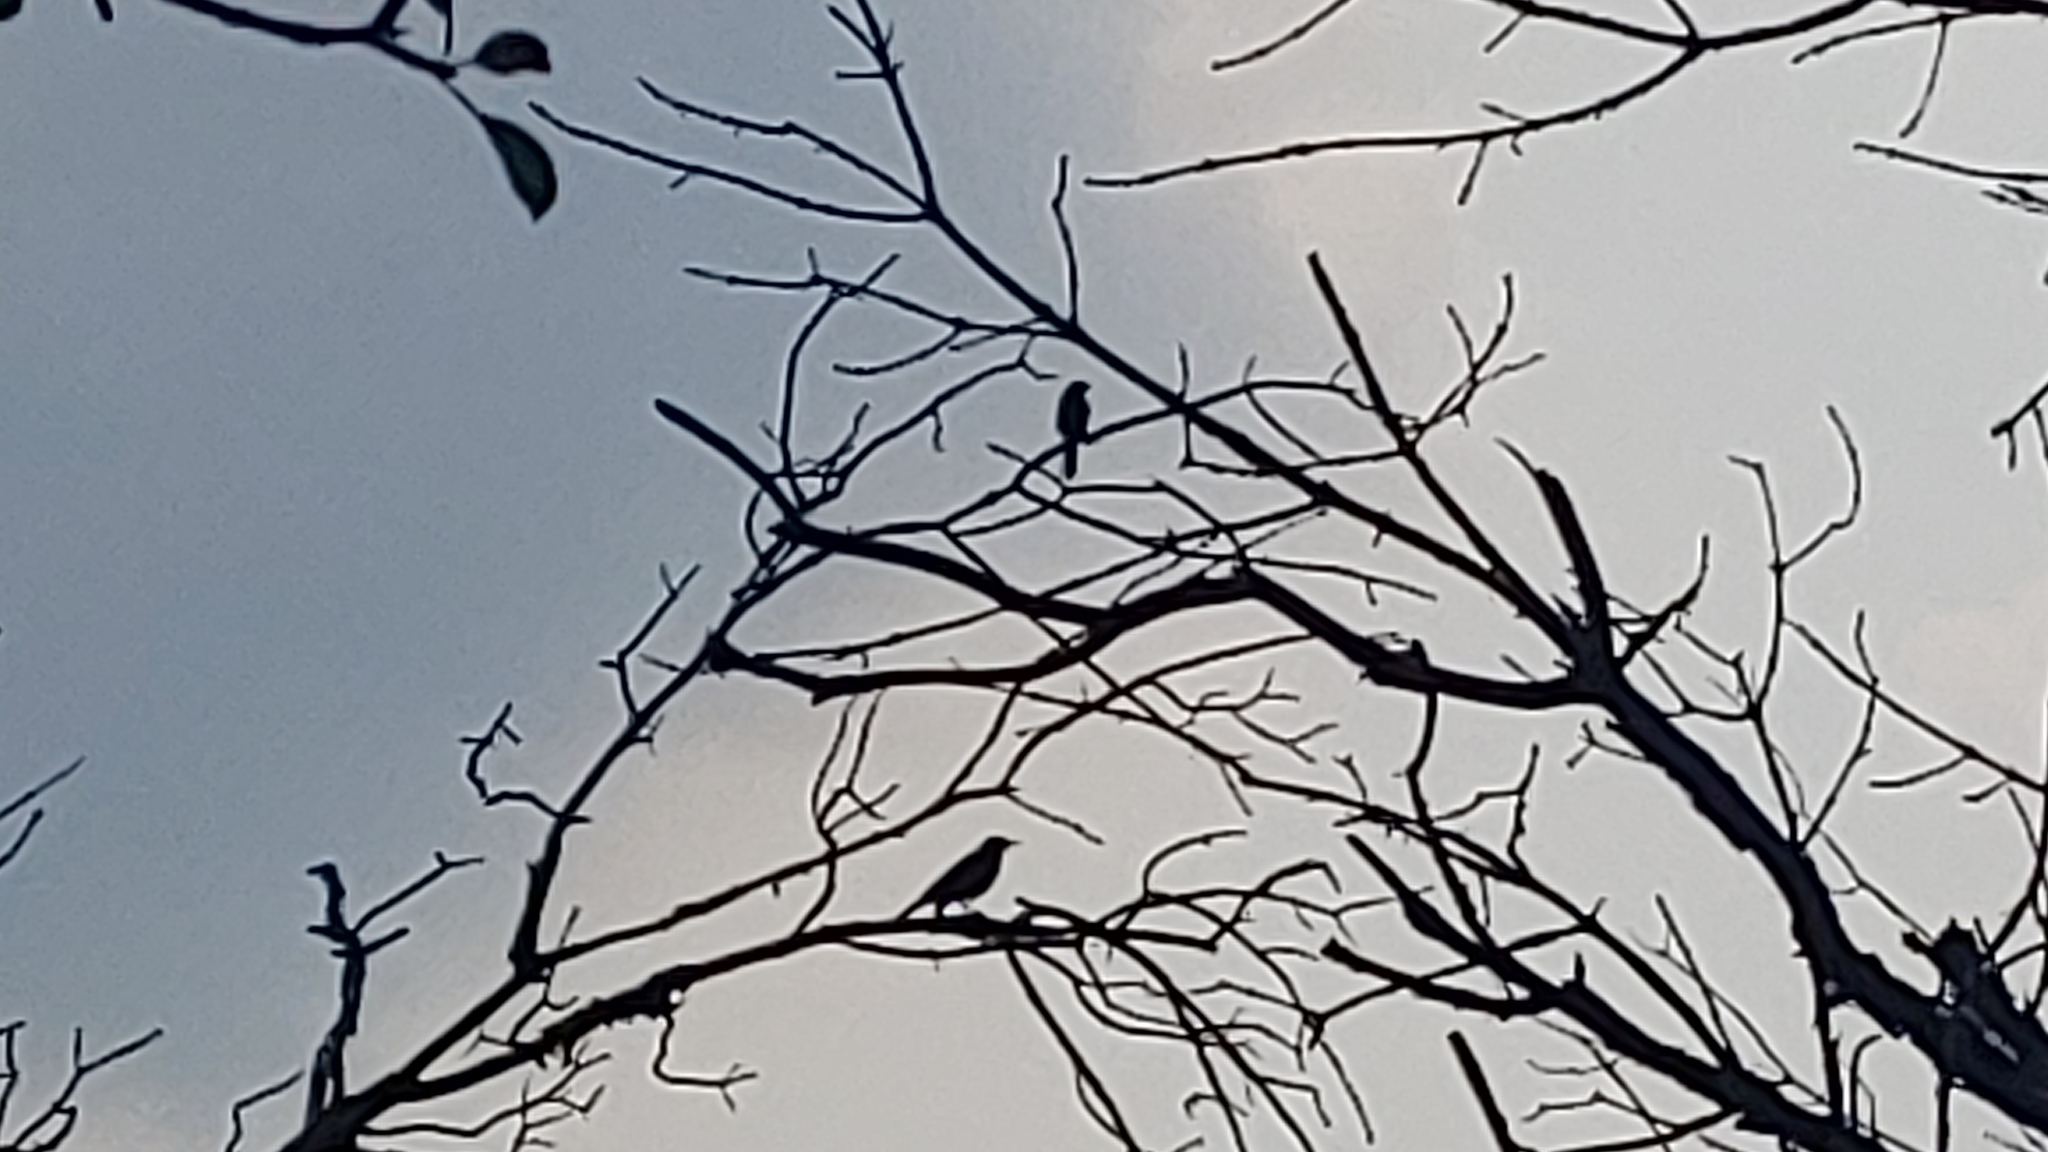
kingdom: Animalia
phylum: Chordata
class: Aves
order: Passeriformes
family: Mimidae
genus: Mimus
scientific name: Mimus polyglottos
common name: Northern mockingbird
